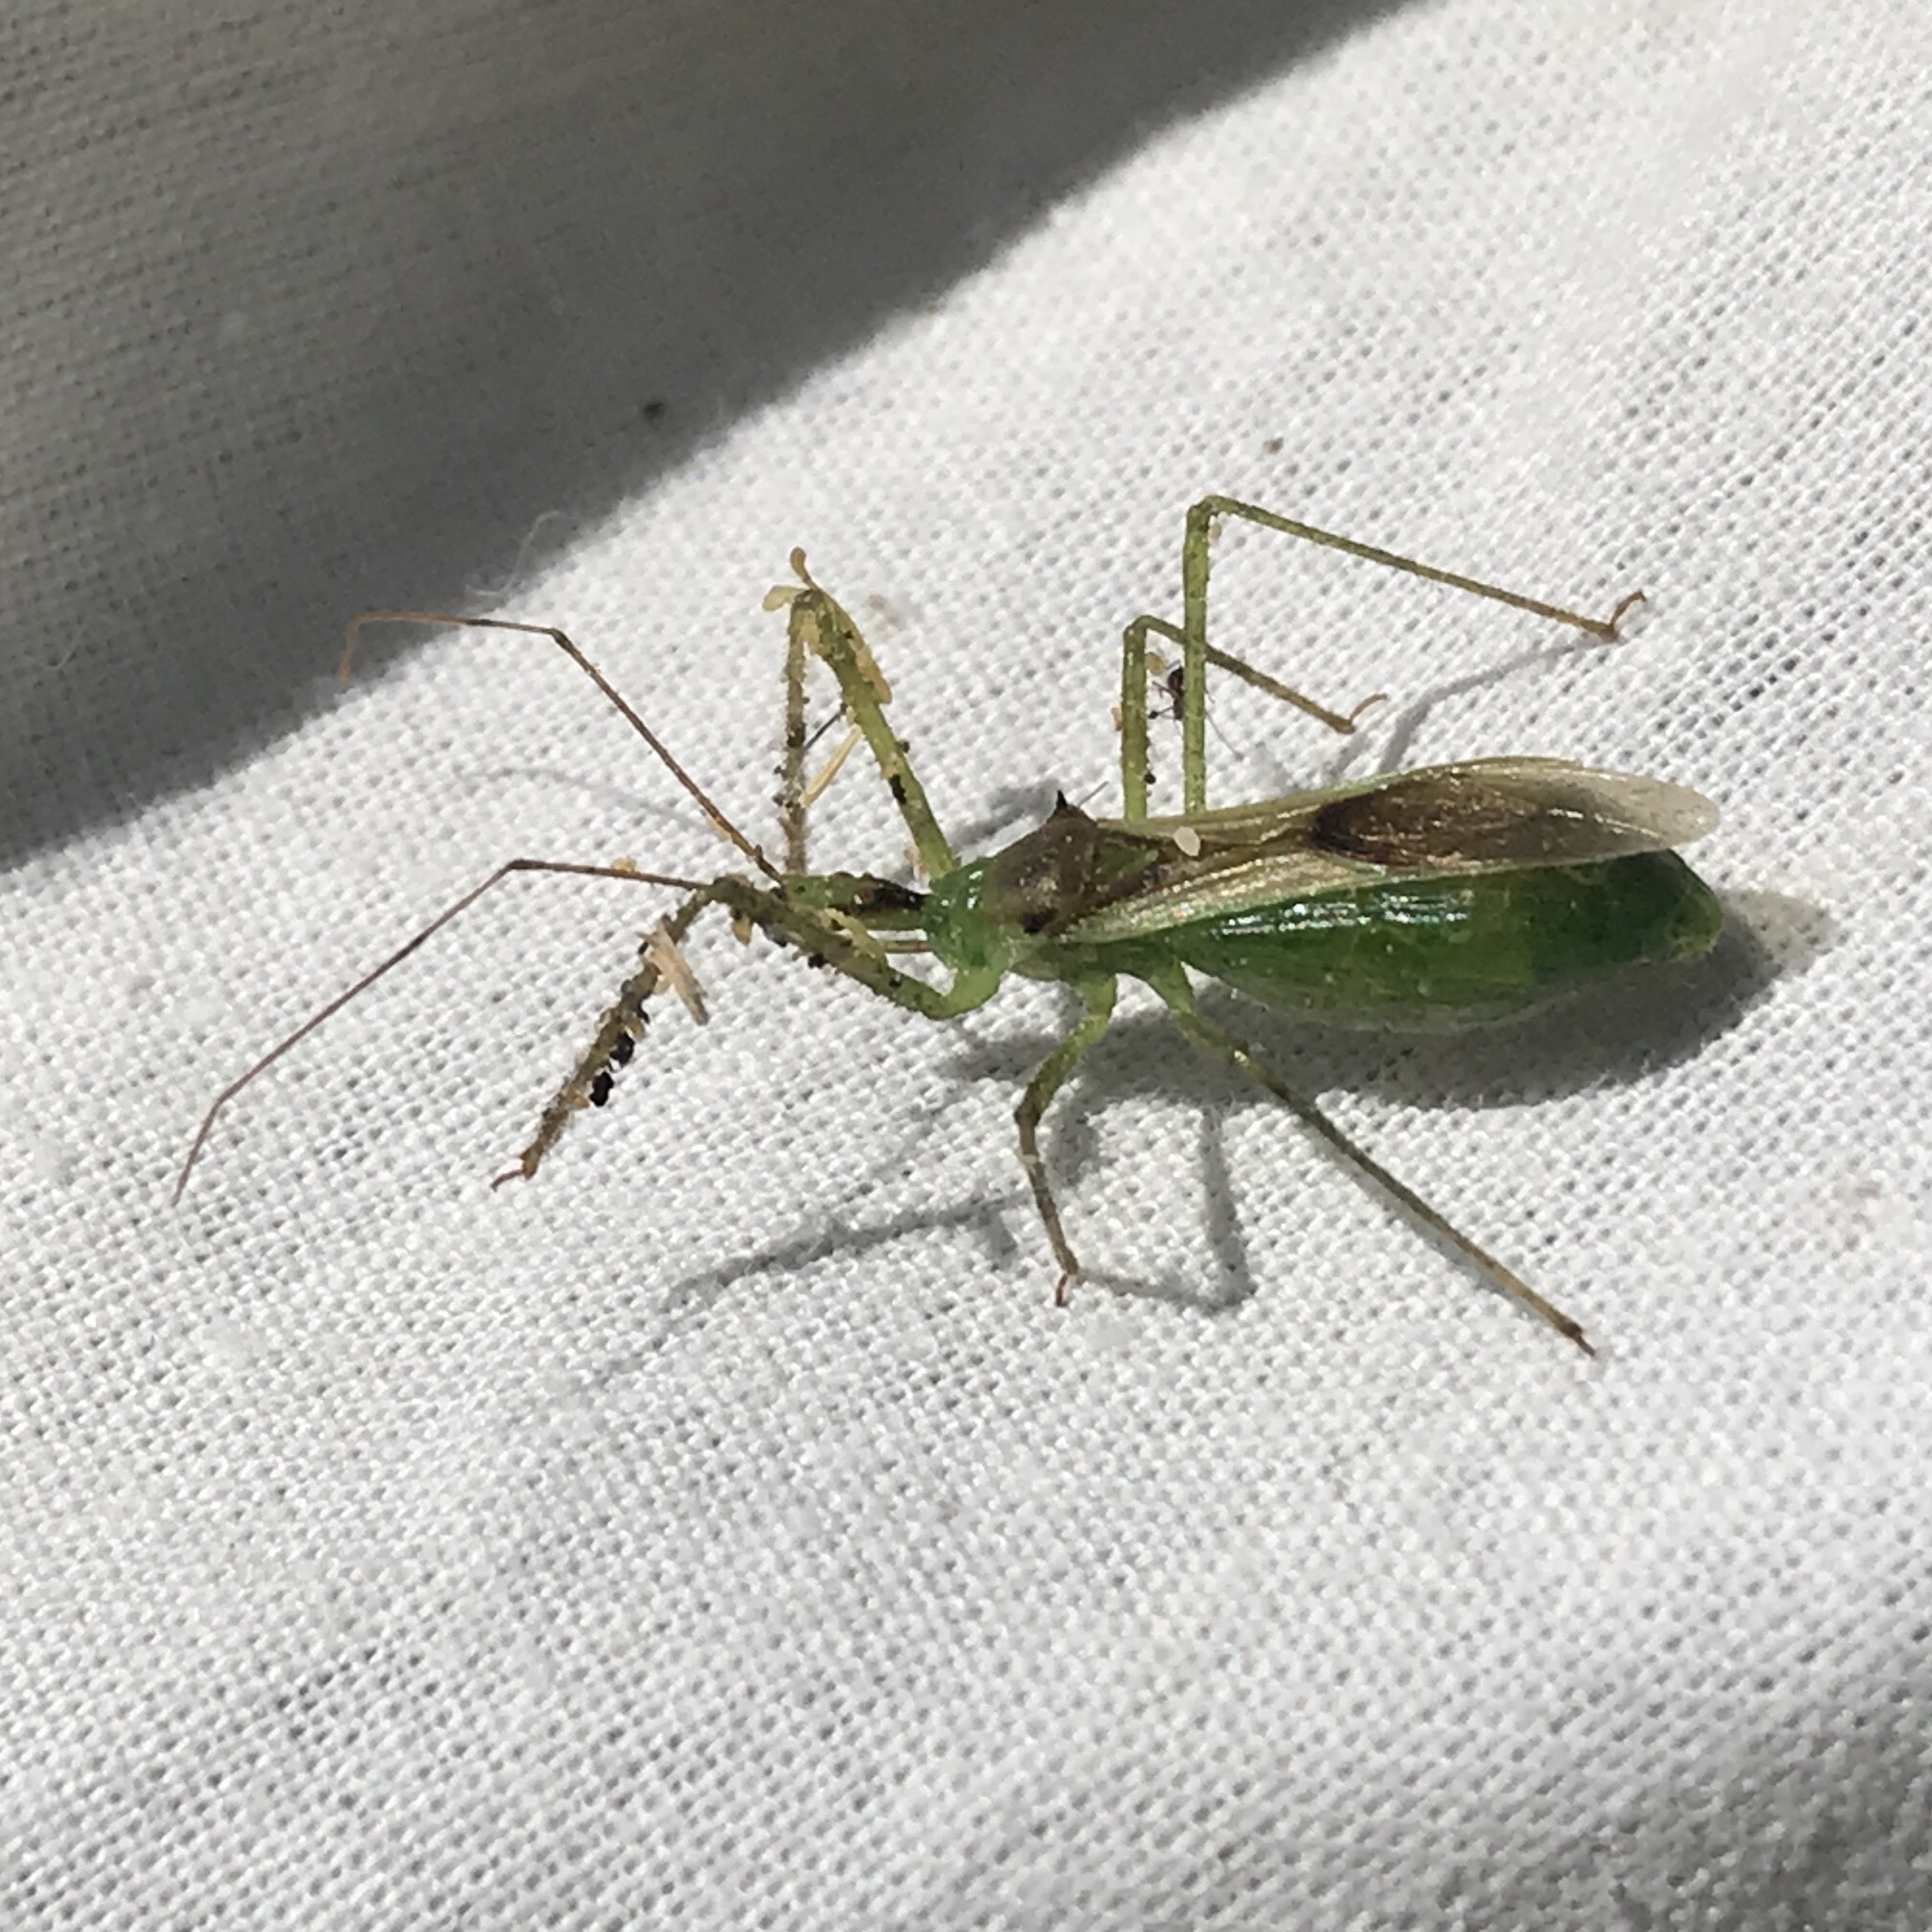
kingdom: Animalia
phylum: Arthropoda
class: Insecta
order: Hemiptera
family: Reduviidae
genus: Zelus
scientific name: Zelus luridus
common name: Pale green assassin bug
